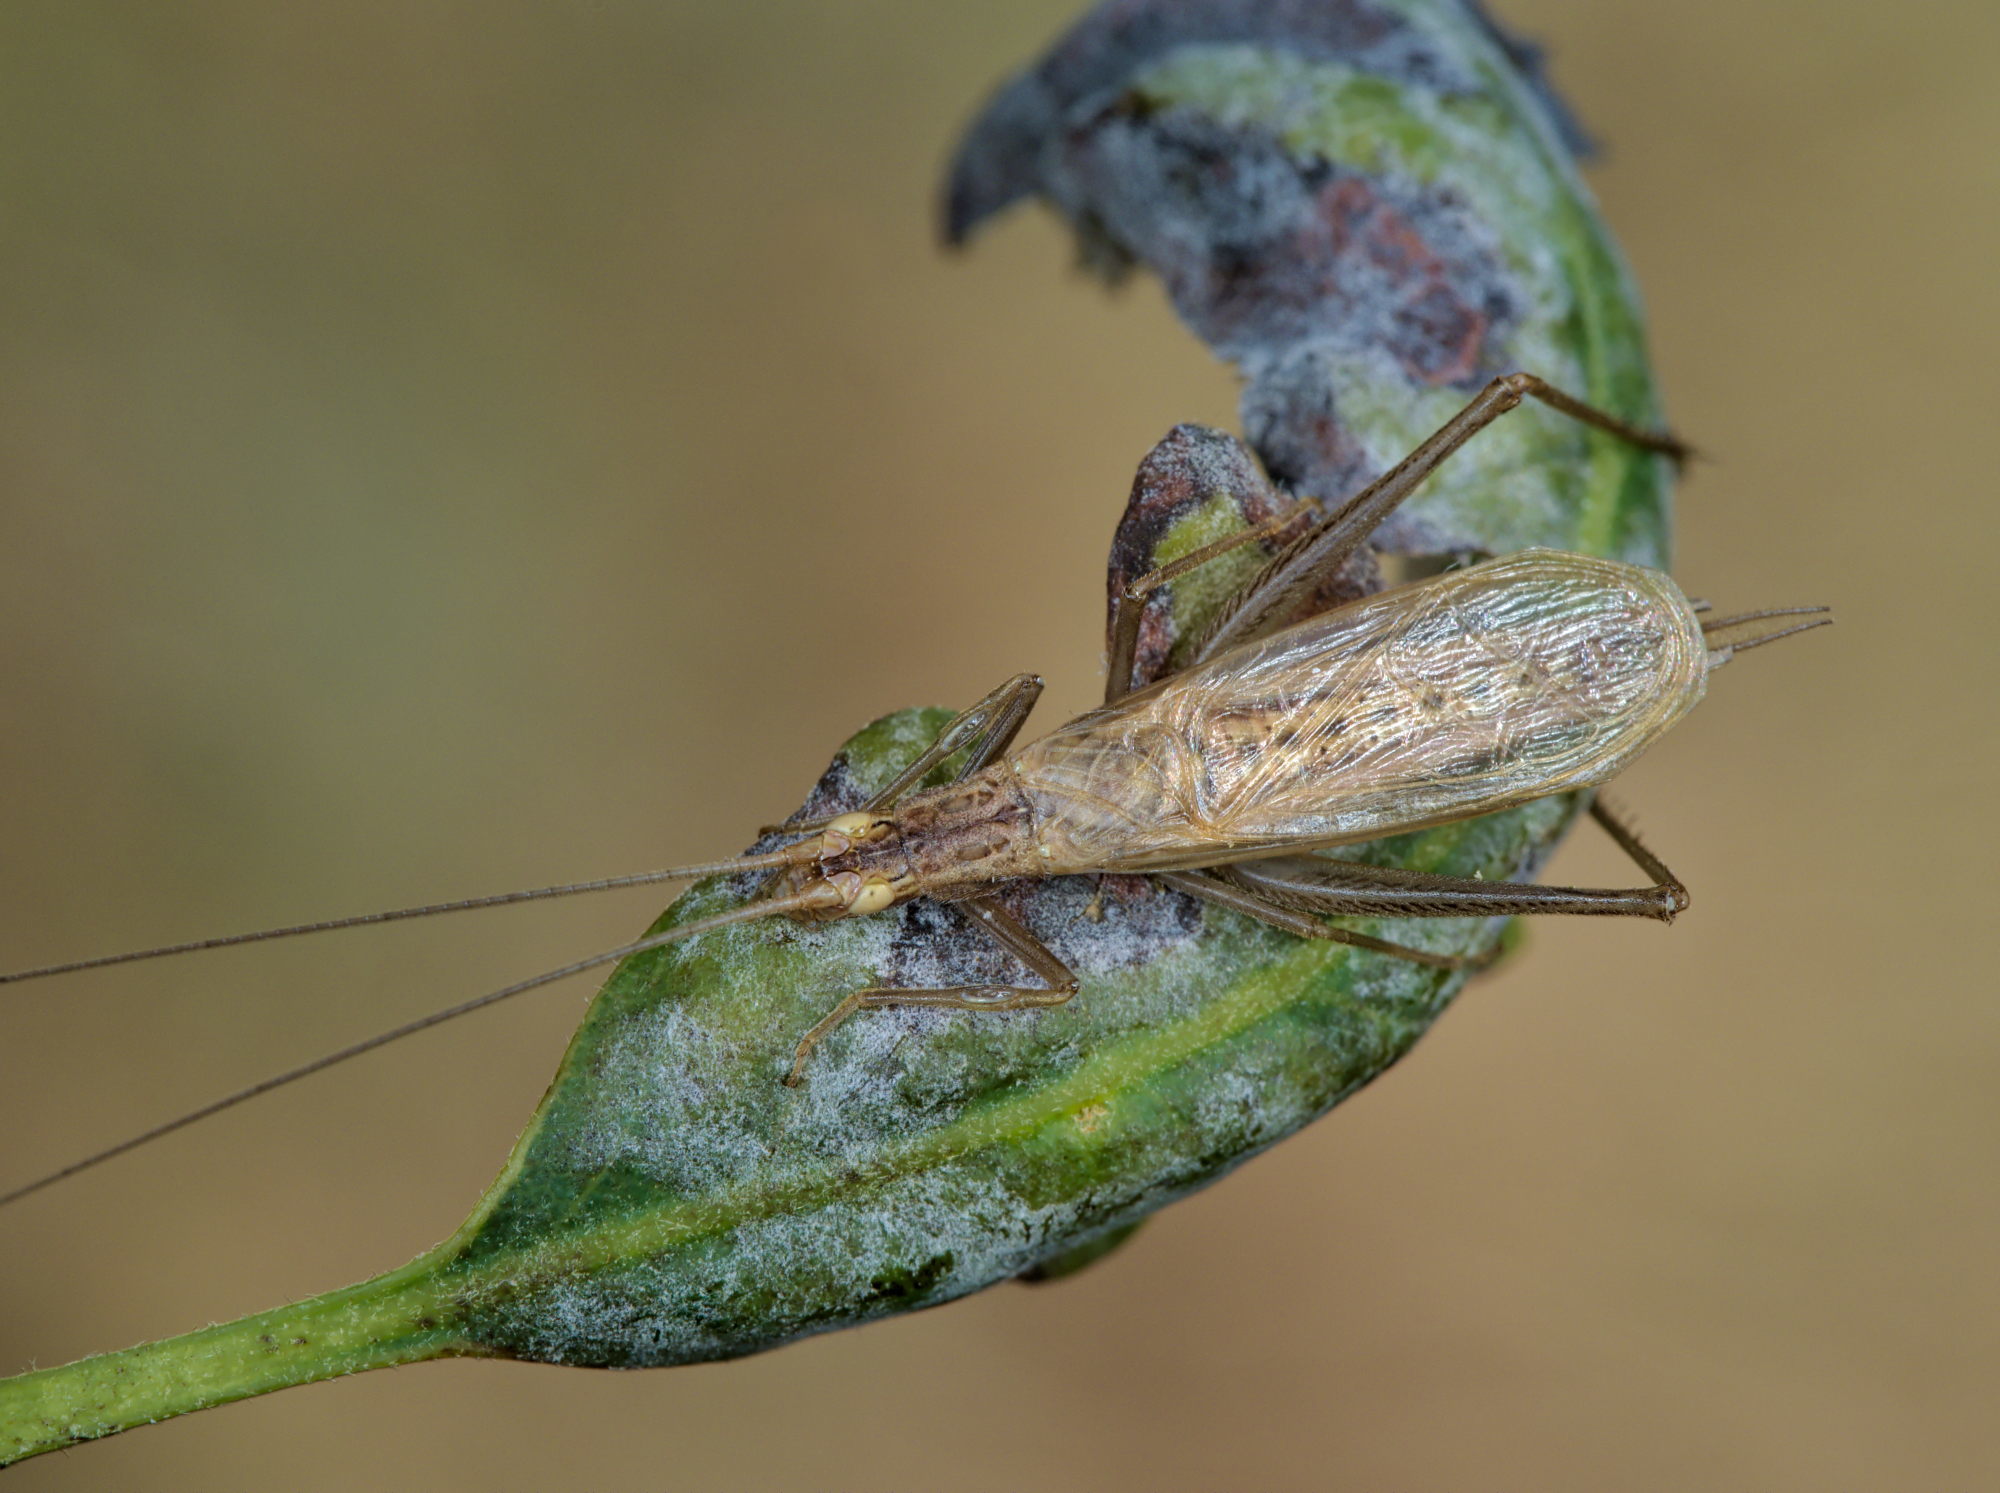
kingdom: Animalia
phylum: Arthropoda
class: Insecta
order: Orthoptera
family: Gryllidae
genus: Oecanthus
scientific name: Oecanthus pellucens
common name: Tree-cricket
